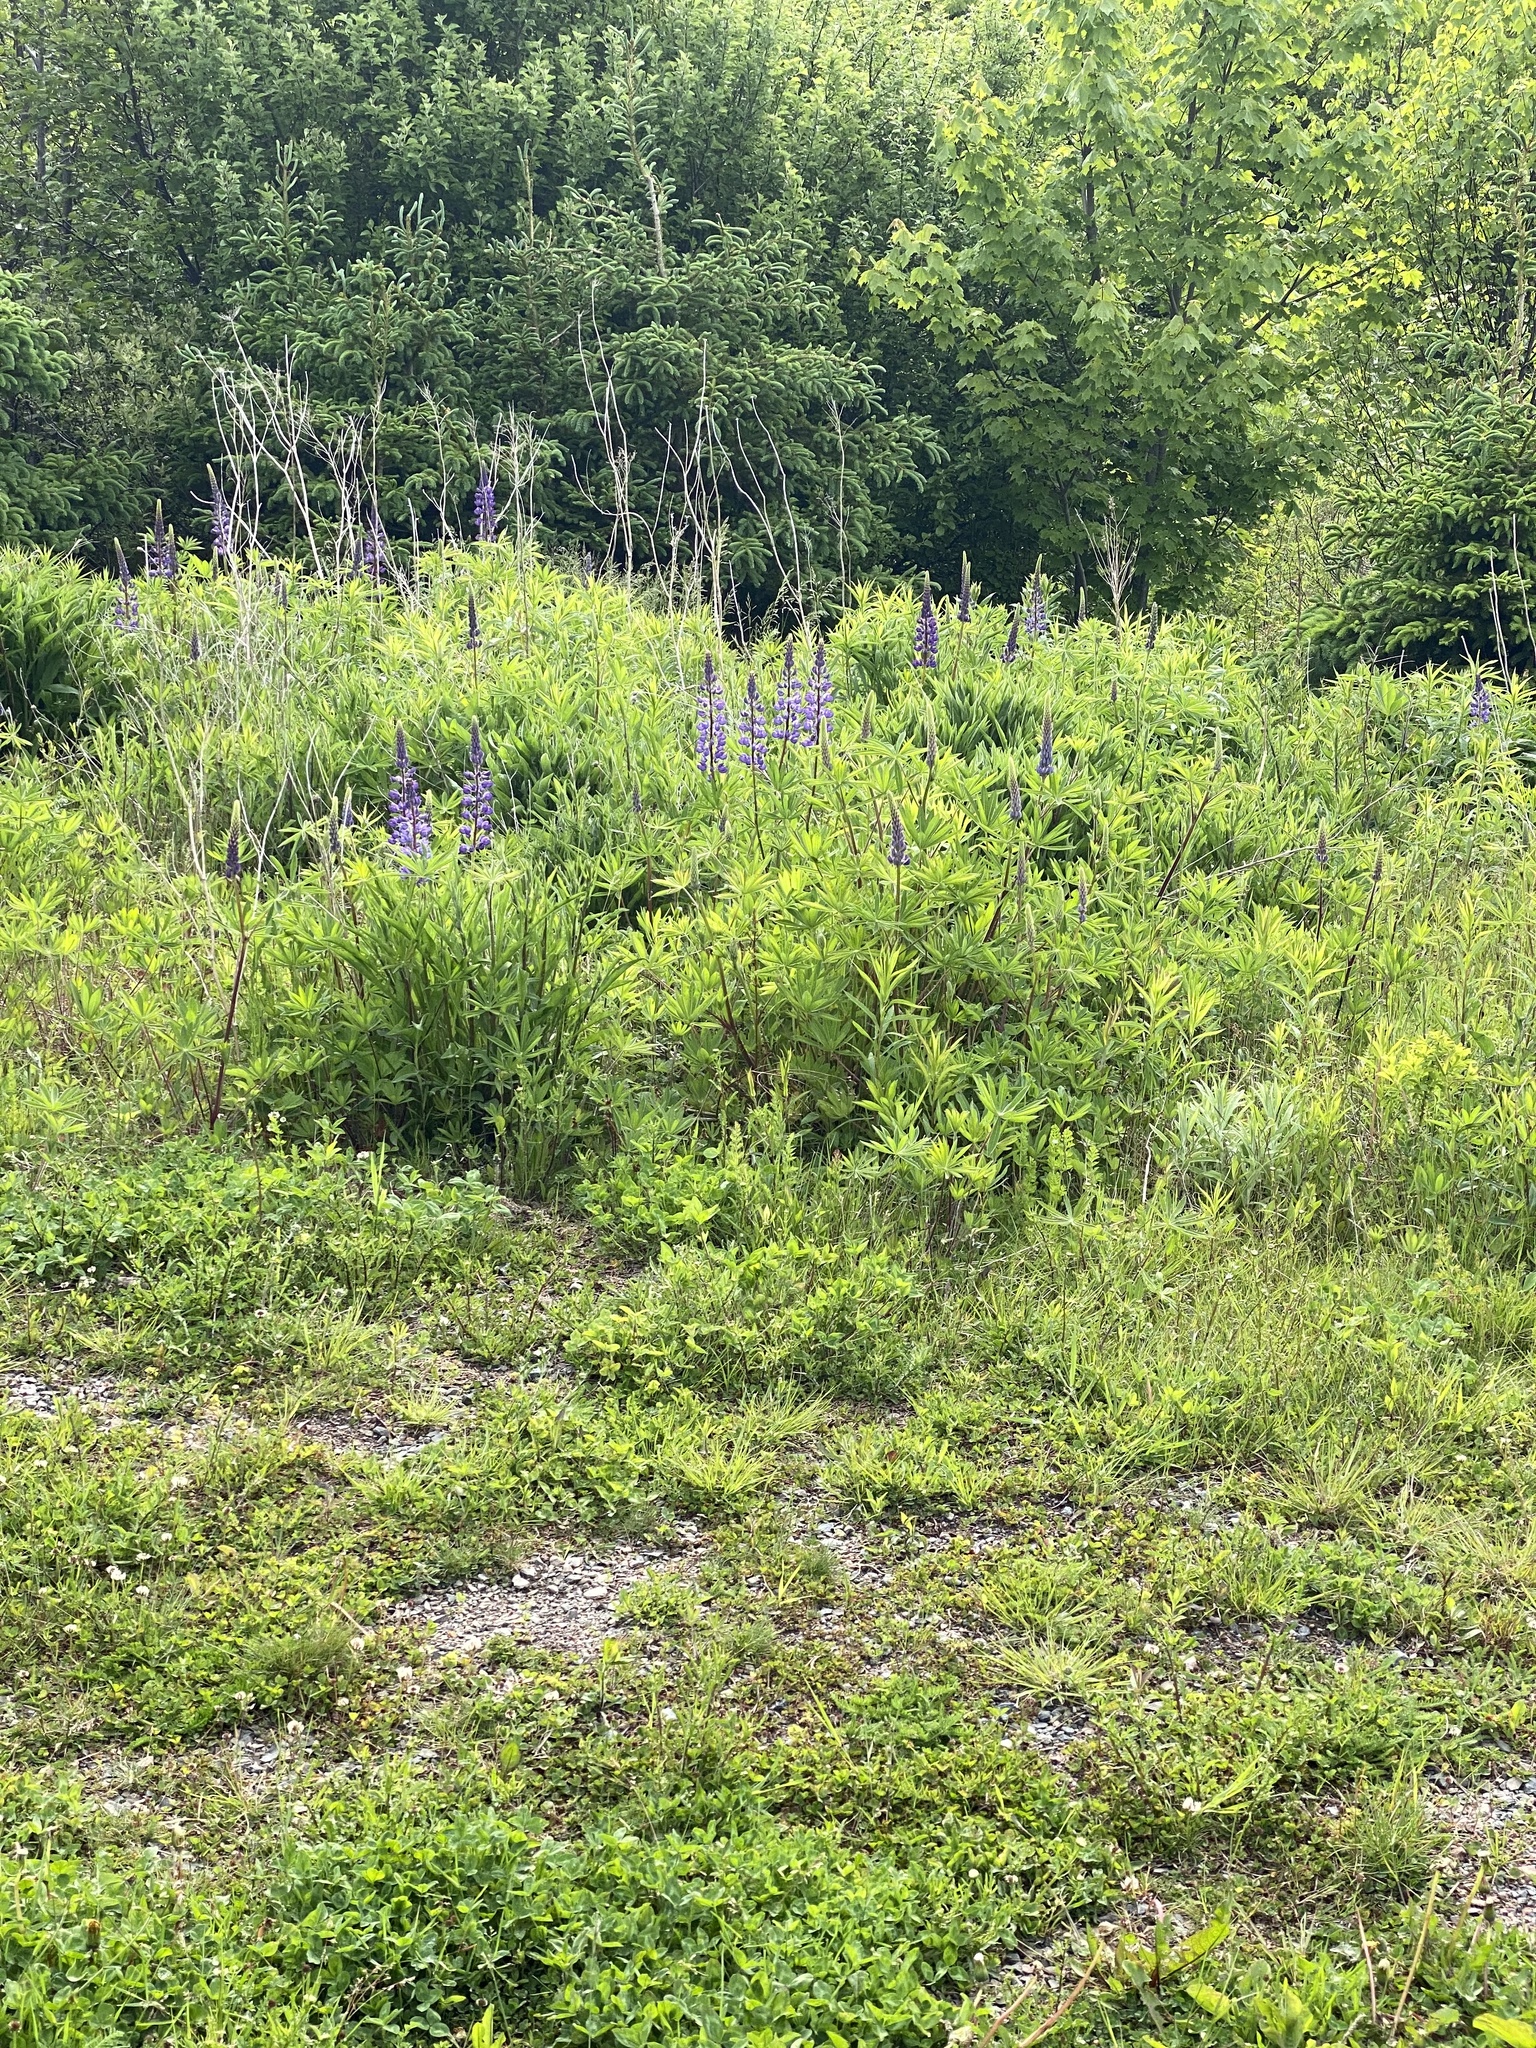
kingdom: Plantae
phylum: Tracheophyta
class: Magnoliopsida
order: Fabales
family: Fabaceae
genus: Lupinus
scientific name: Lupinus polyphyllus
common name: Garden lupin
